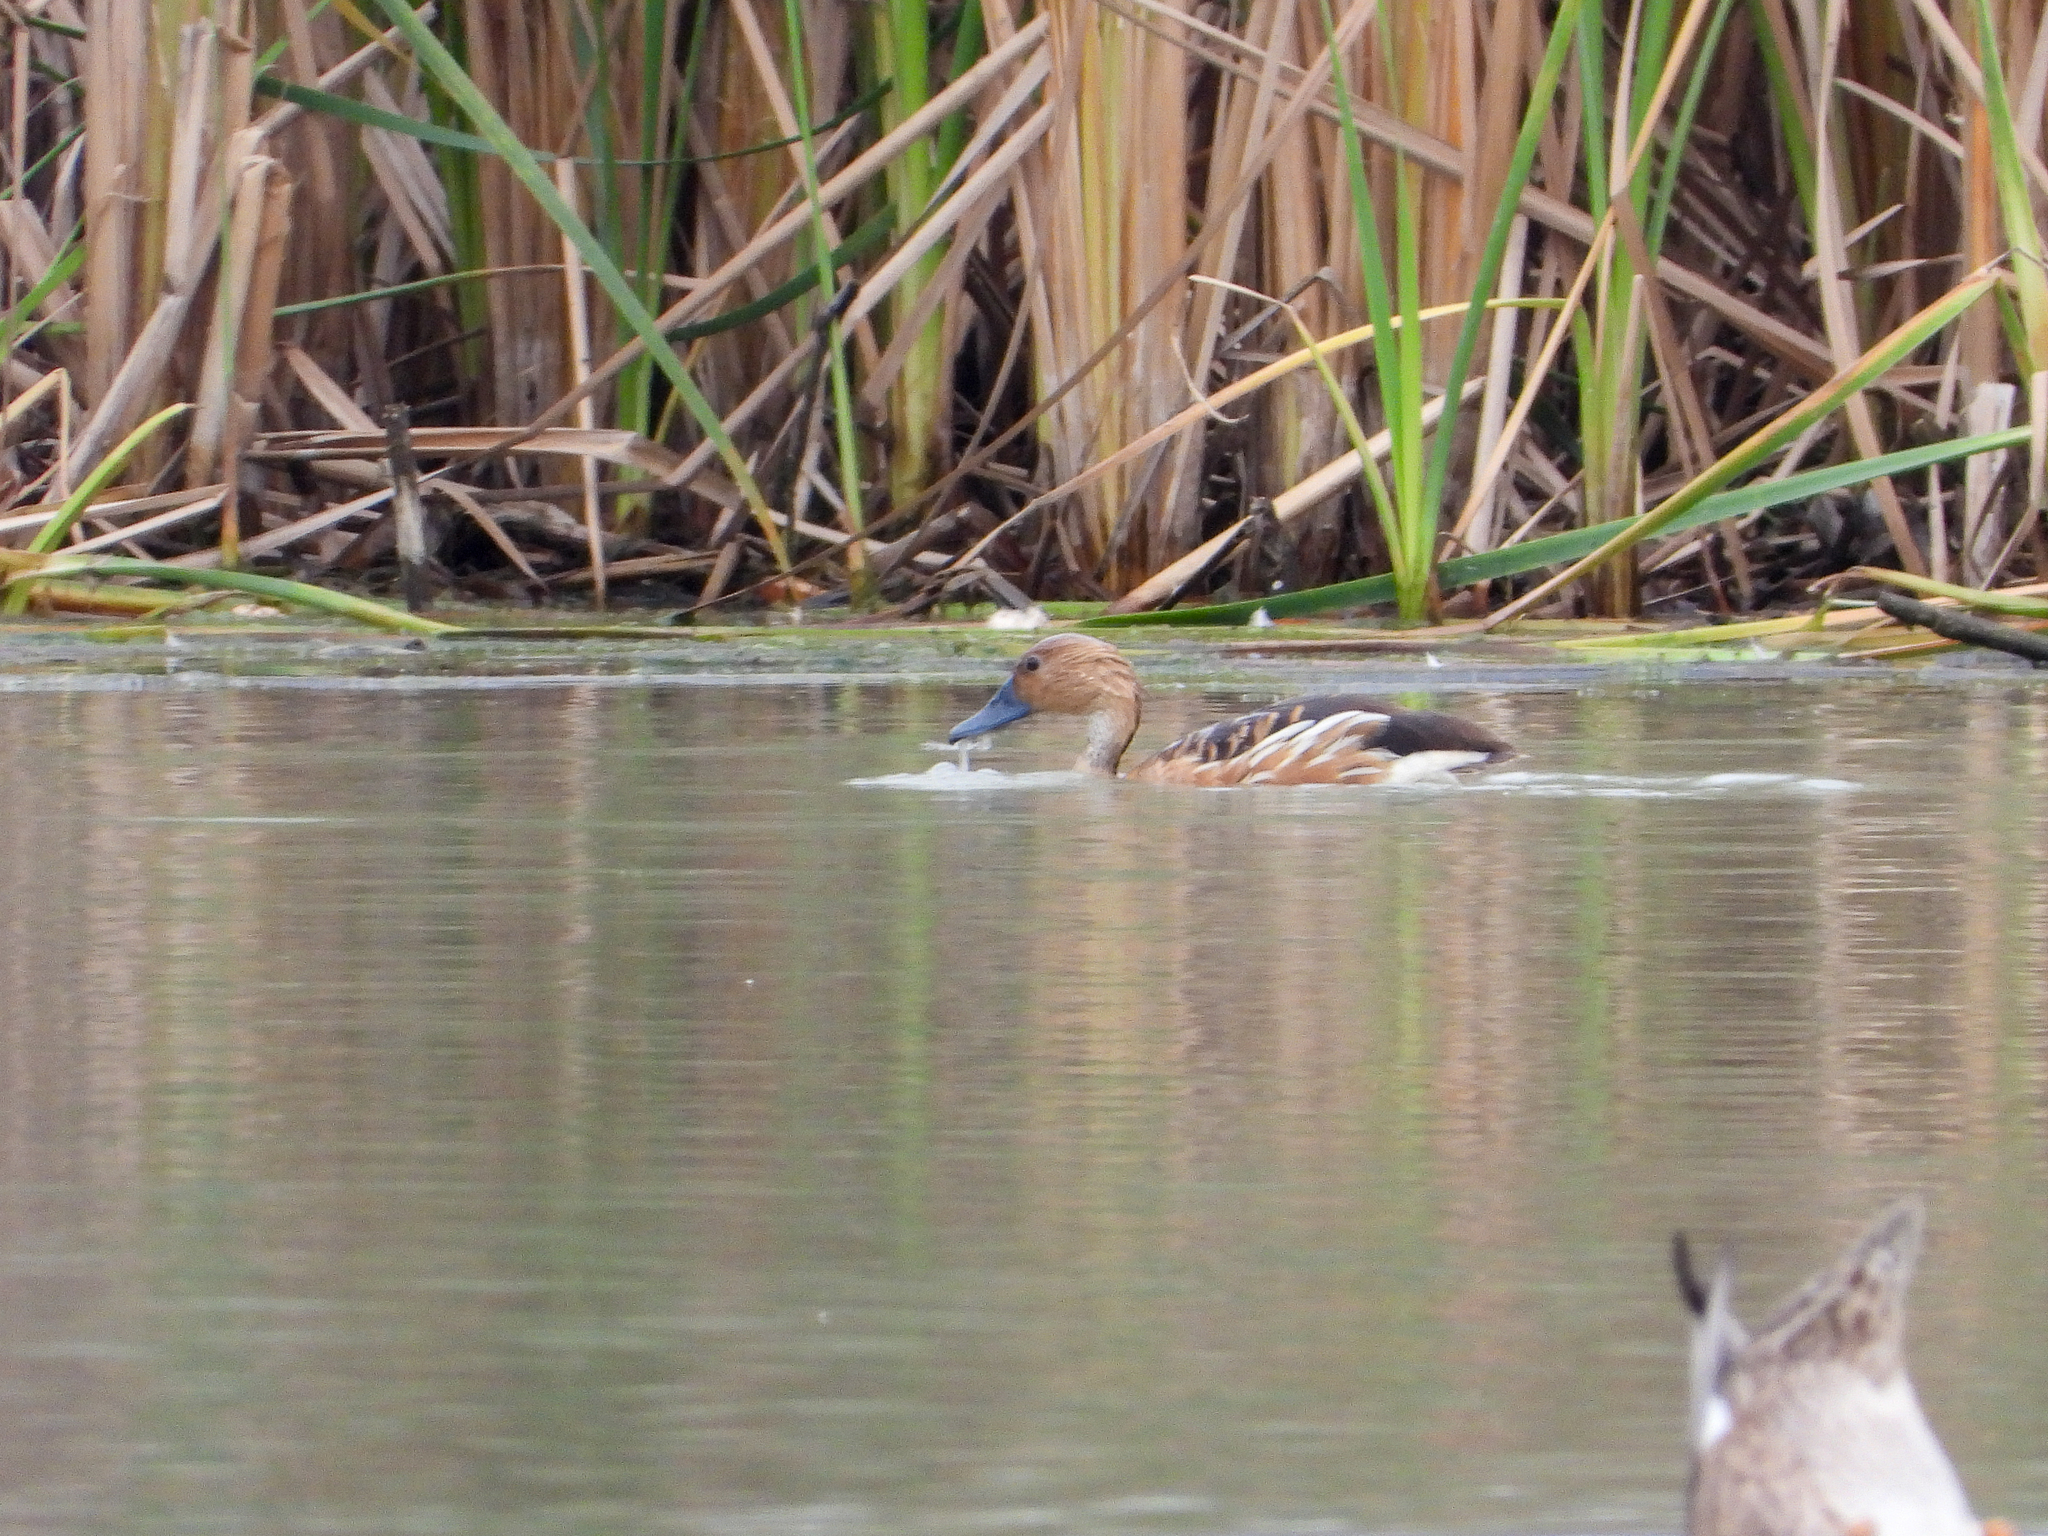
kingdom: Animalia
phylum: Chordata
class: Aves
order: Anseriformes
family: Anatidae
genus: Dendrocygna
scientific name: Dendrocygna bicolor
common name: Fulvous whistling duck
